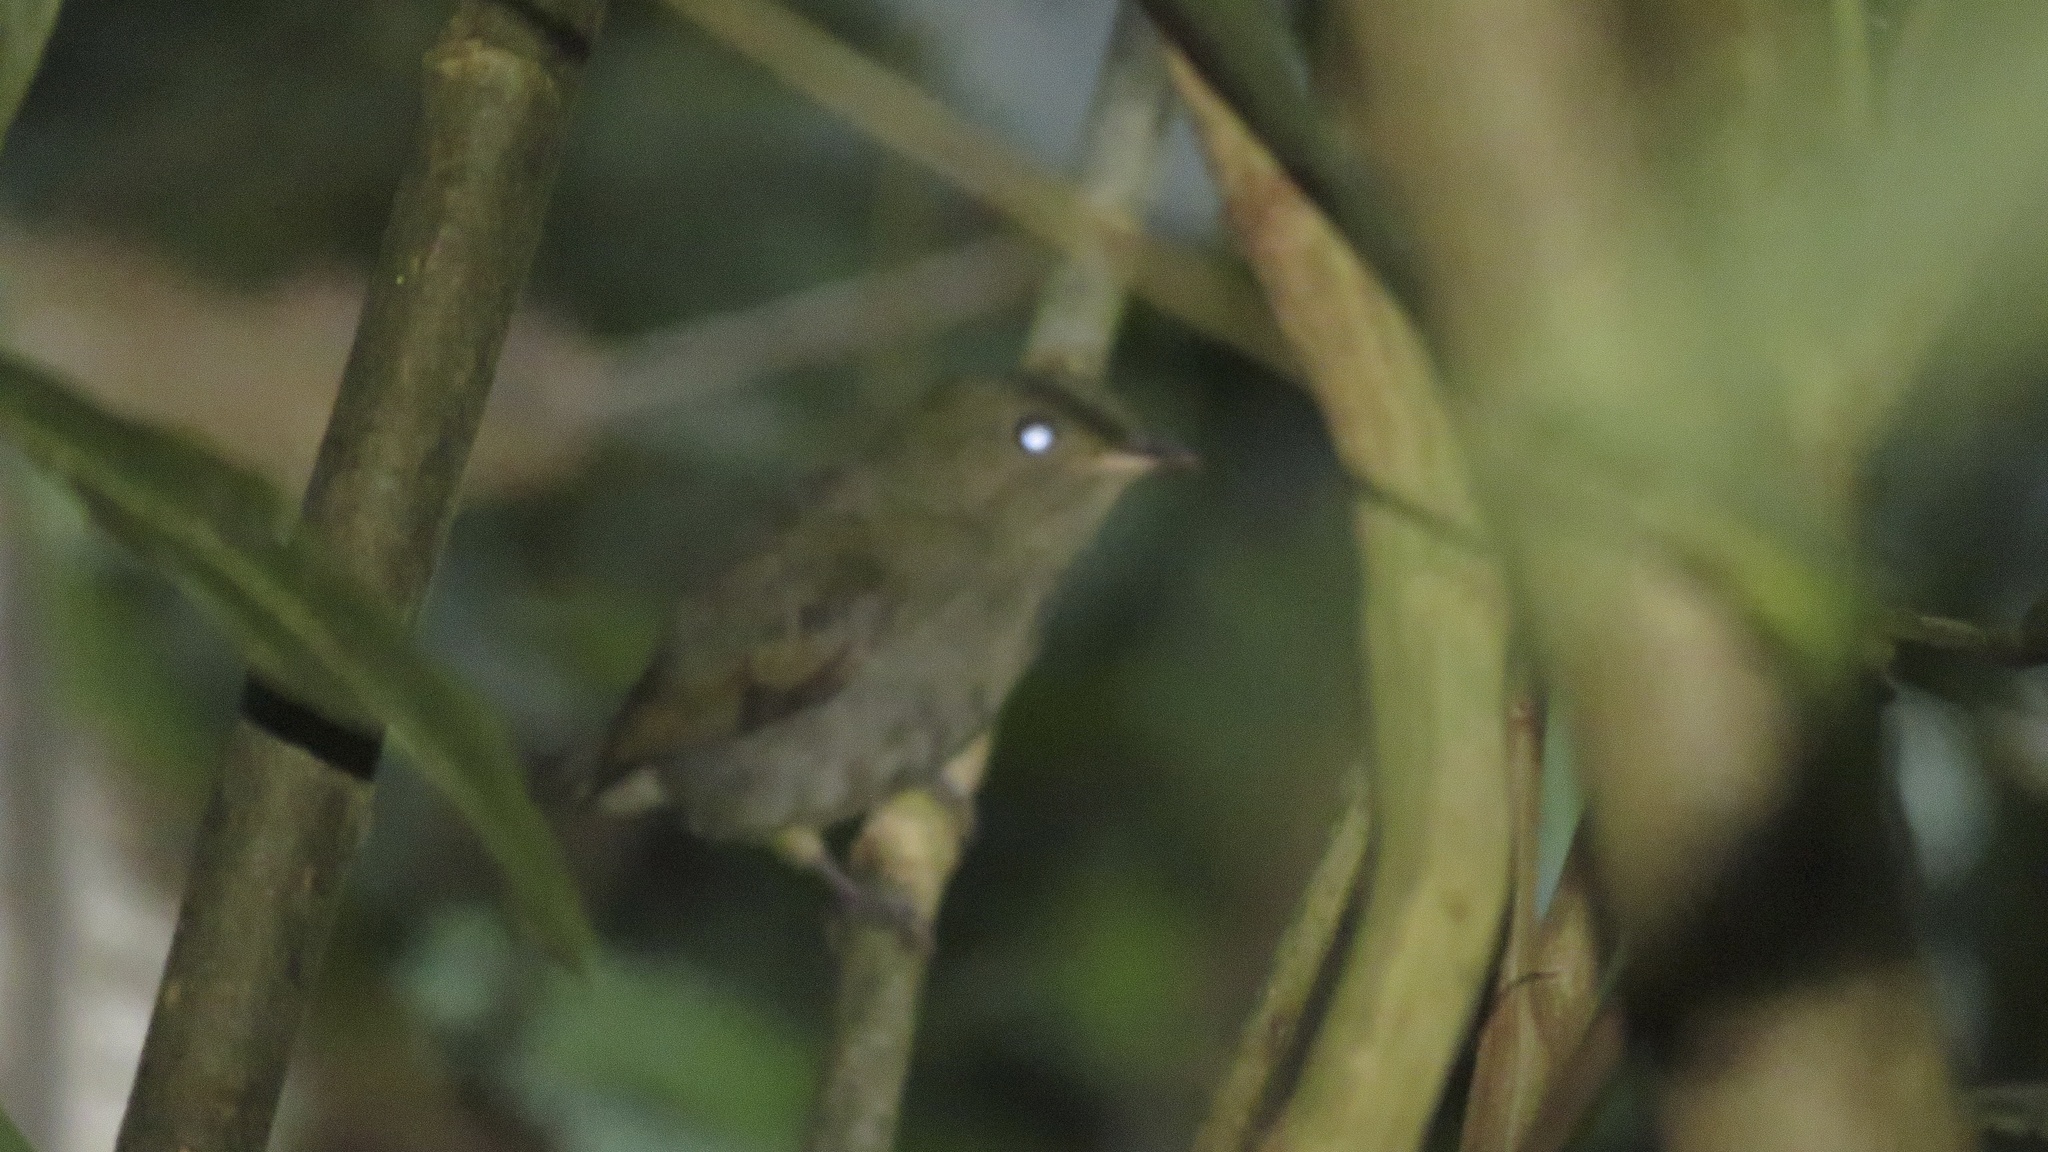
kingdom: Animalia
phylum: Chordata
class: Aves
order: Passeriformes
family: Pipridae
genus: Pipra
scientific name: Pipra mentalis
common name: Red-capped manakin
